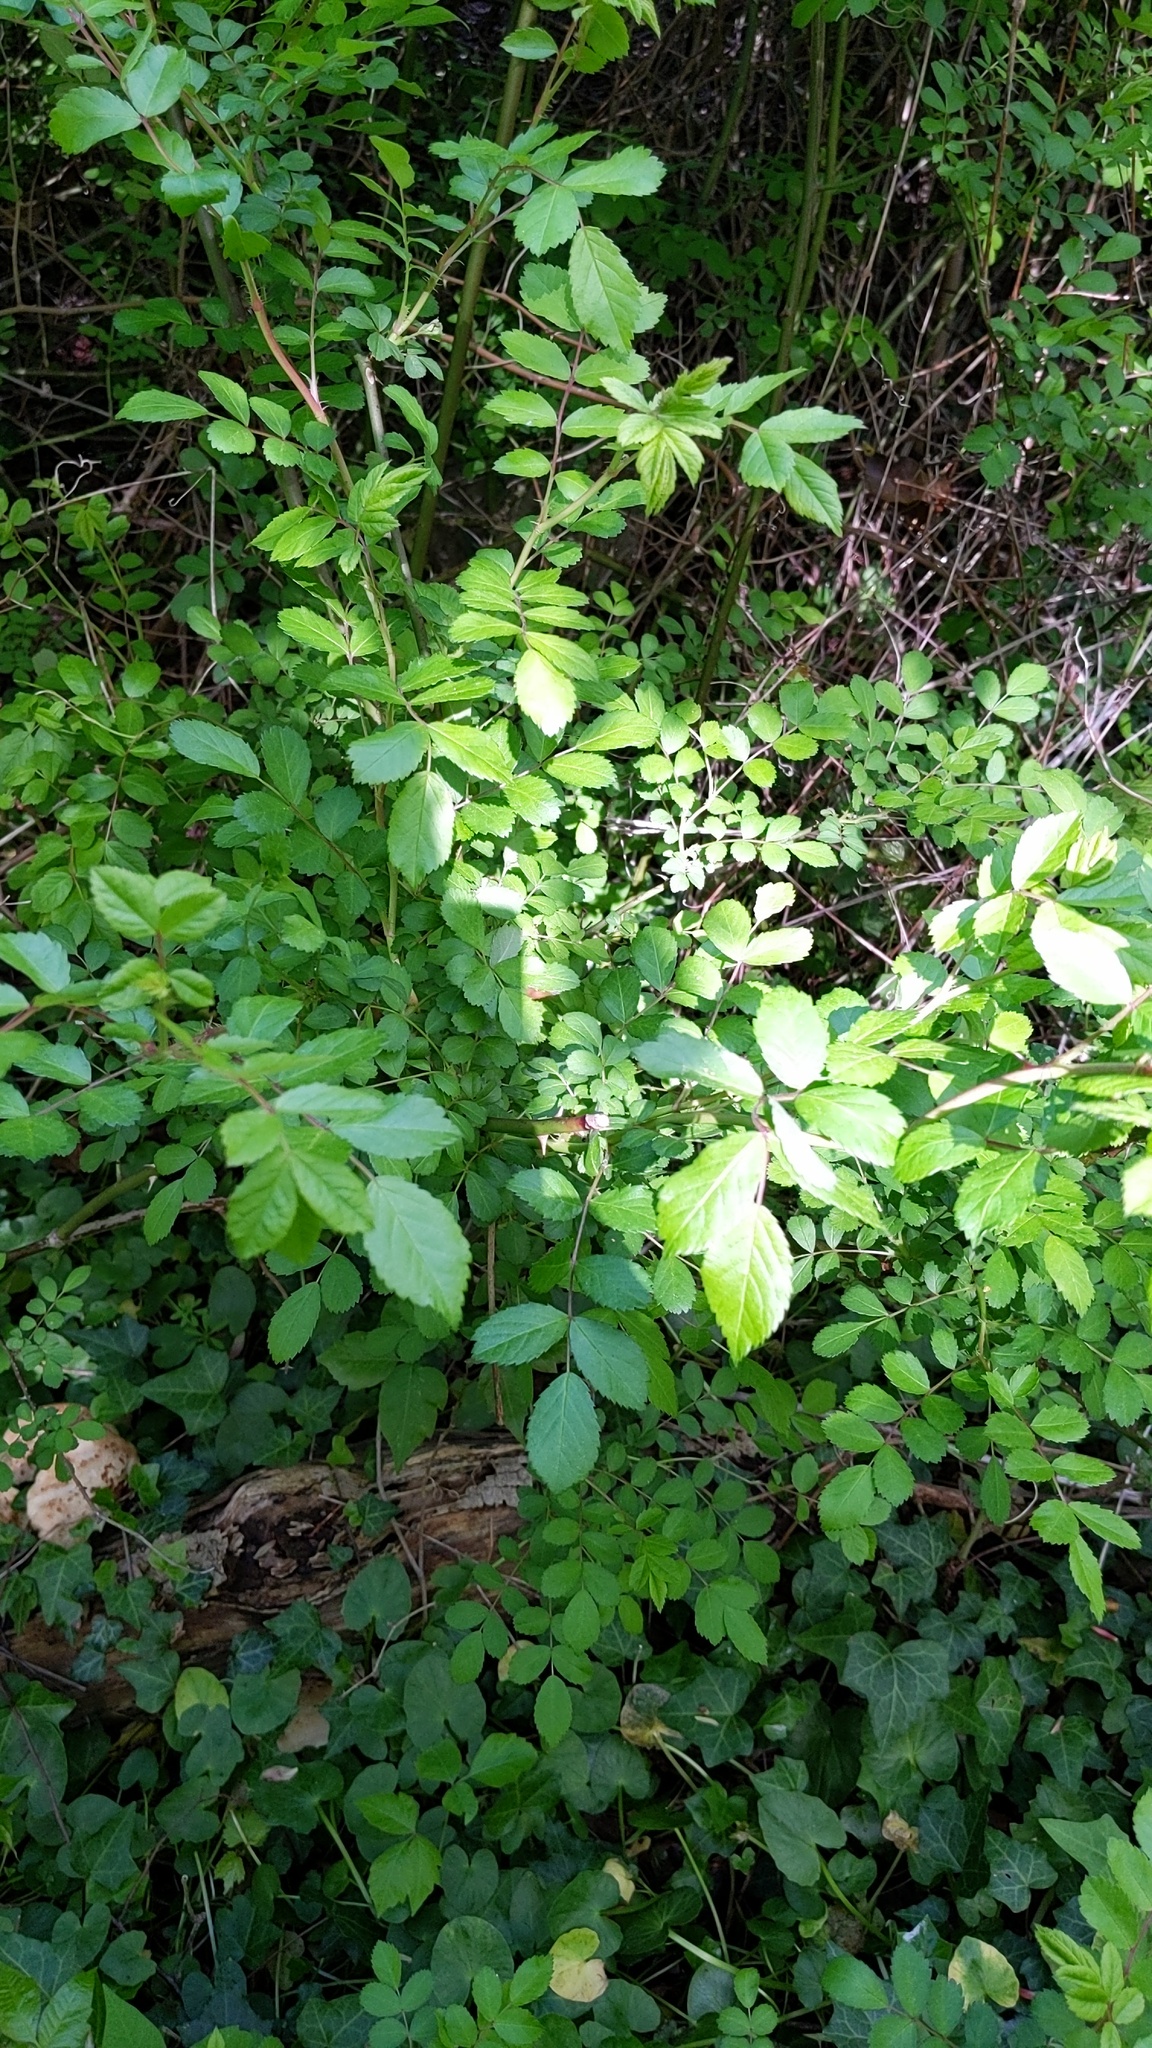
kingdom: Plantae
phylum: Tracheophyta
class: Magnoliopsida
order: Rosales
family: Rosaceae
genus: Rosa
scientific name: Rosa multiflora
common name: Multiflora rose
